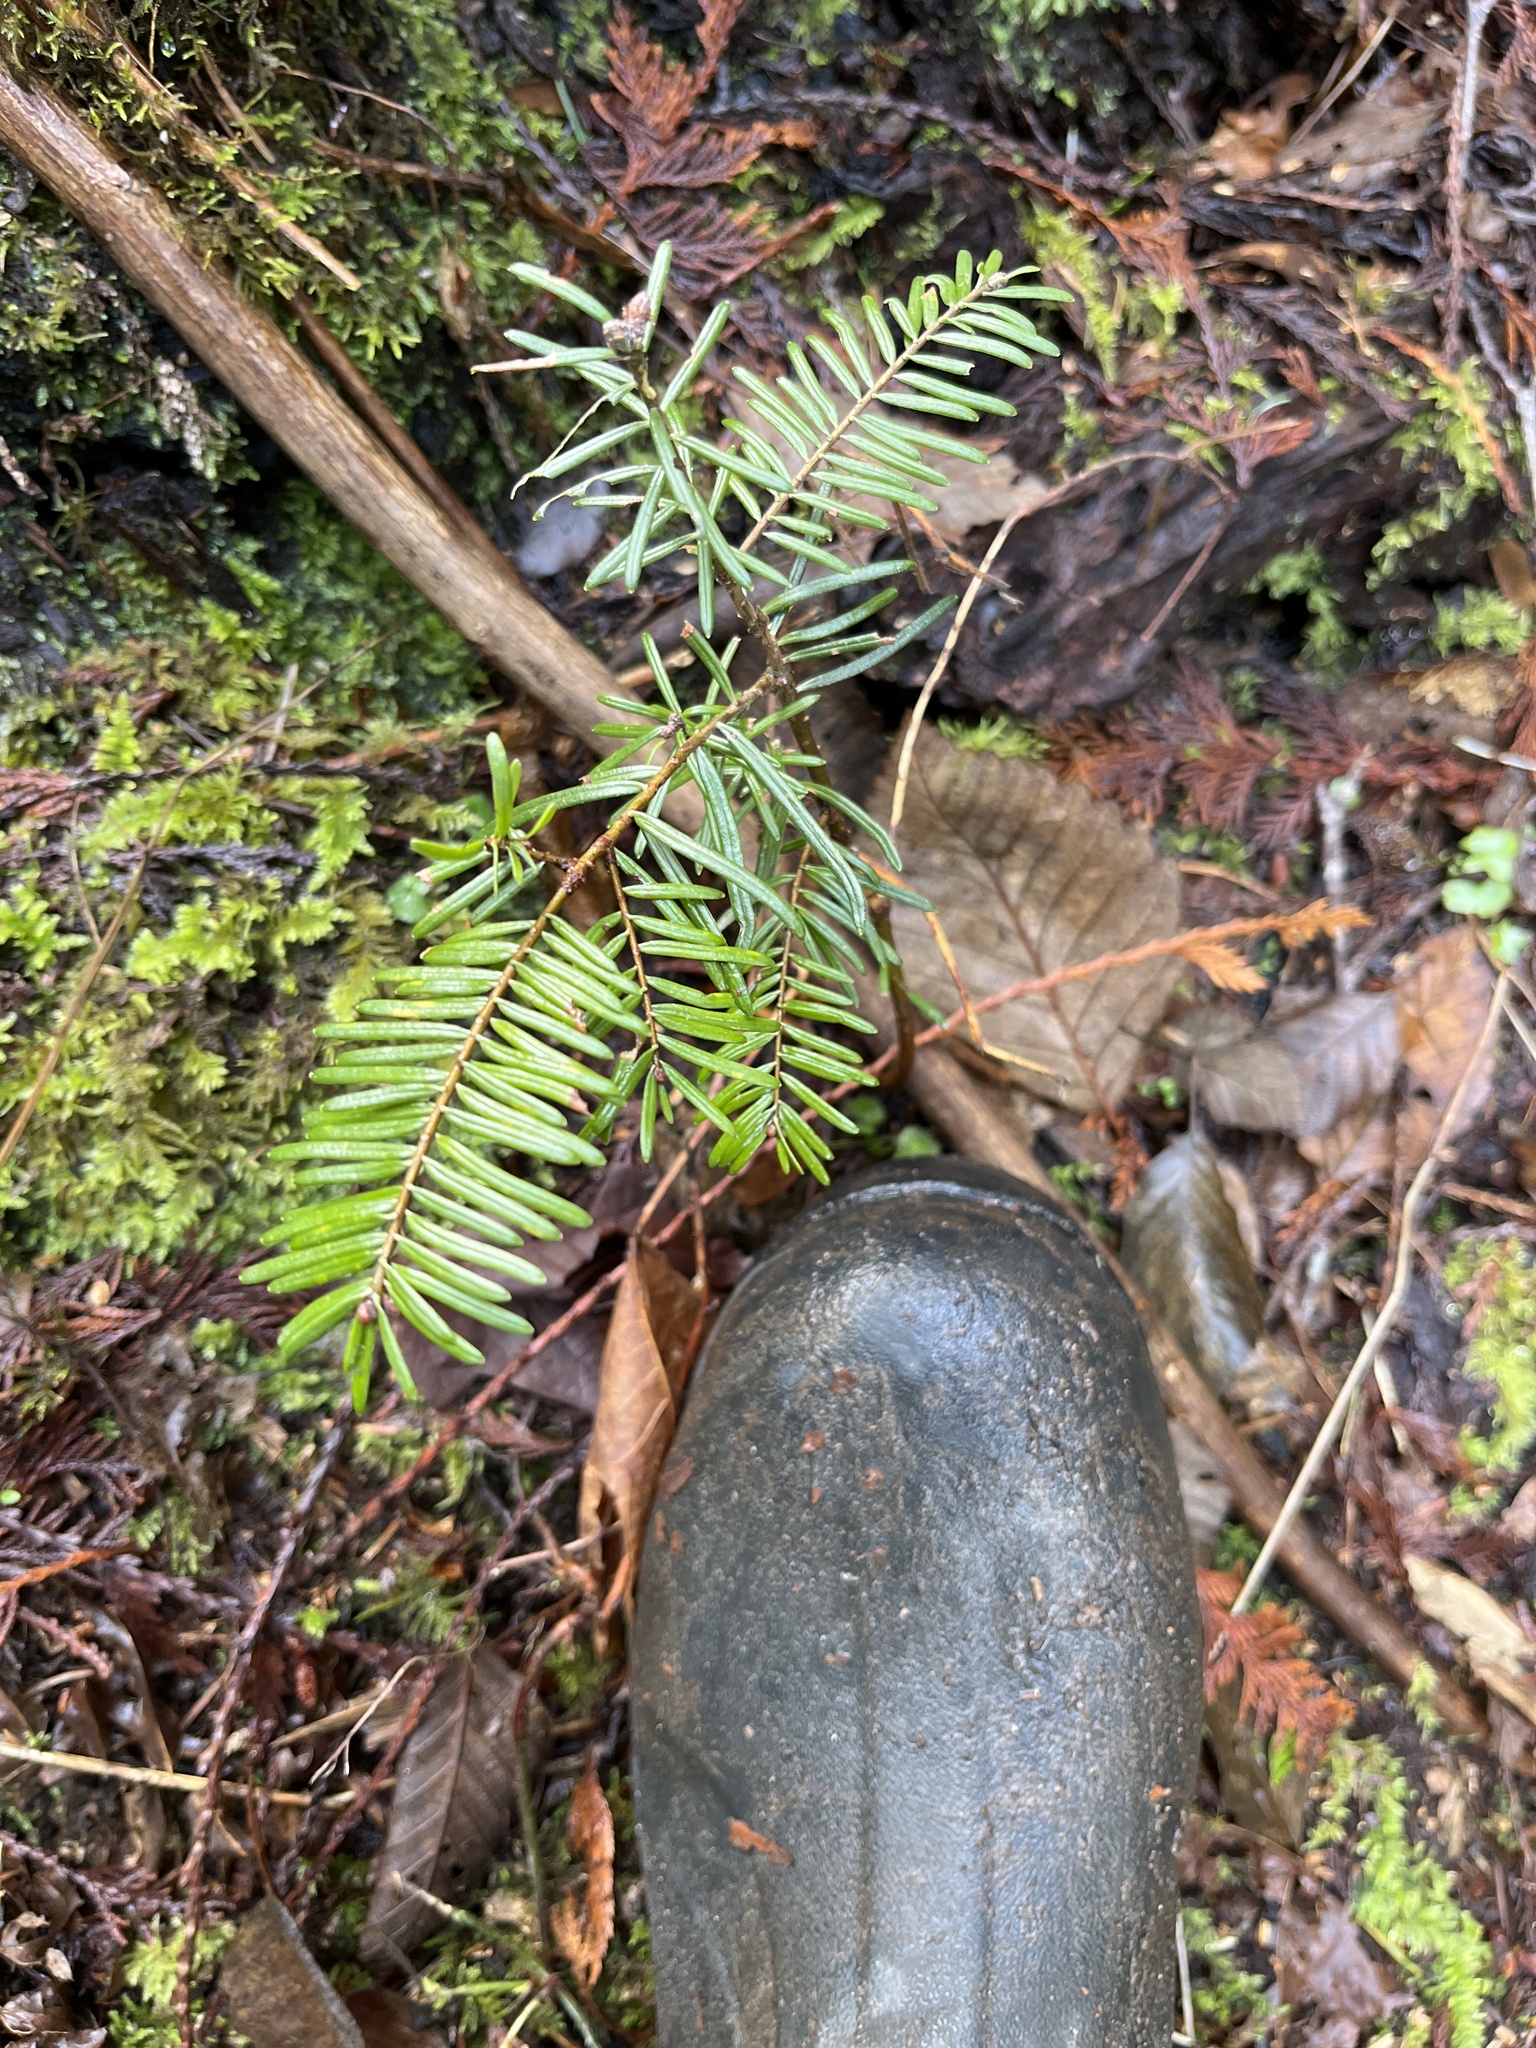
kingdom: Plantae
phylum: Tracheophyta
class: Pinopsida
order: Pinales
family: Pinaceae
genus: Abies
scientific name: Abies grandis
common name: Giant fir
